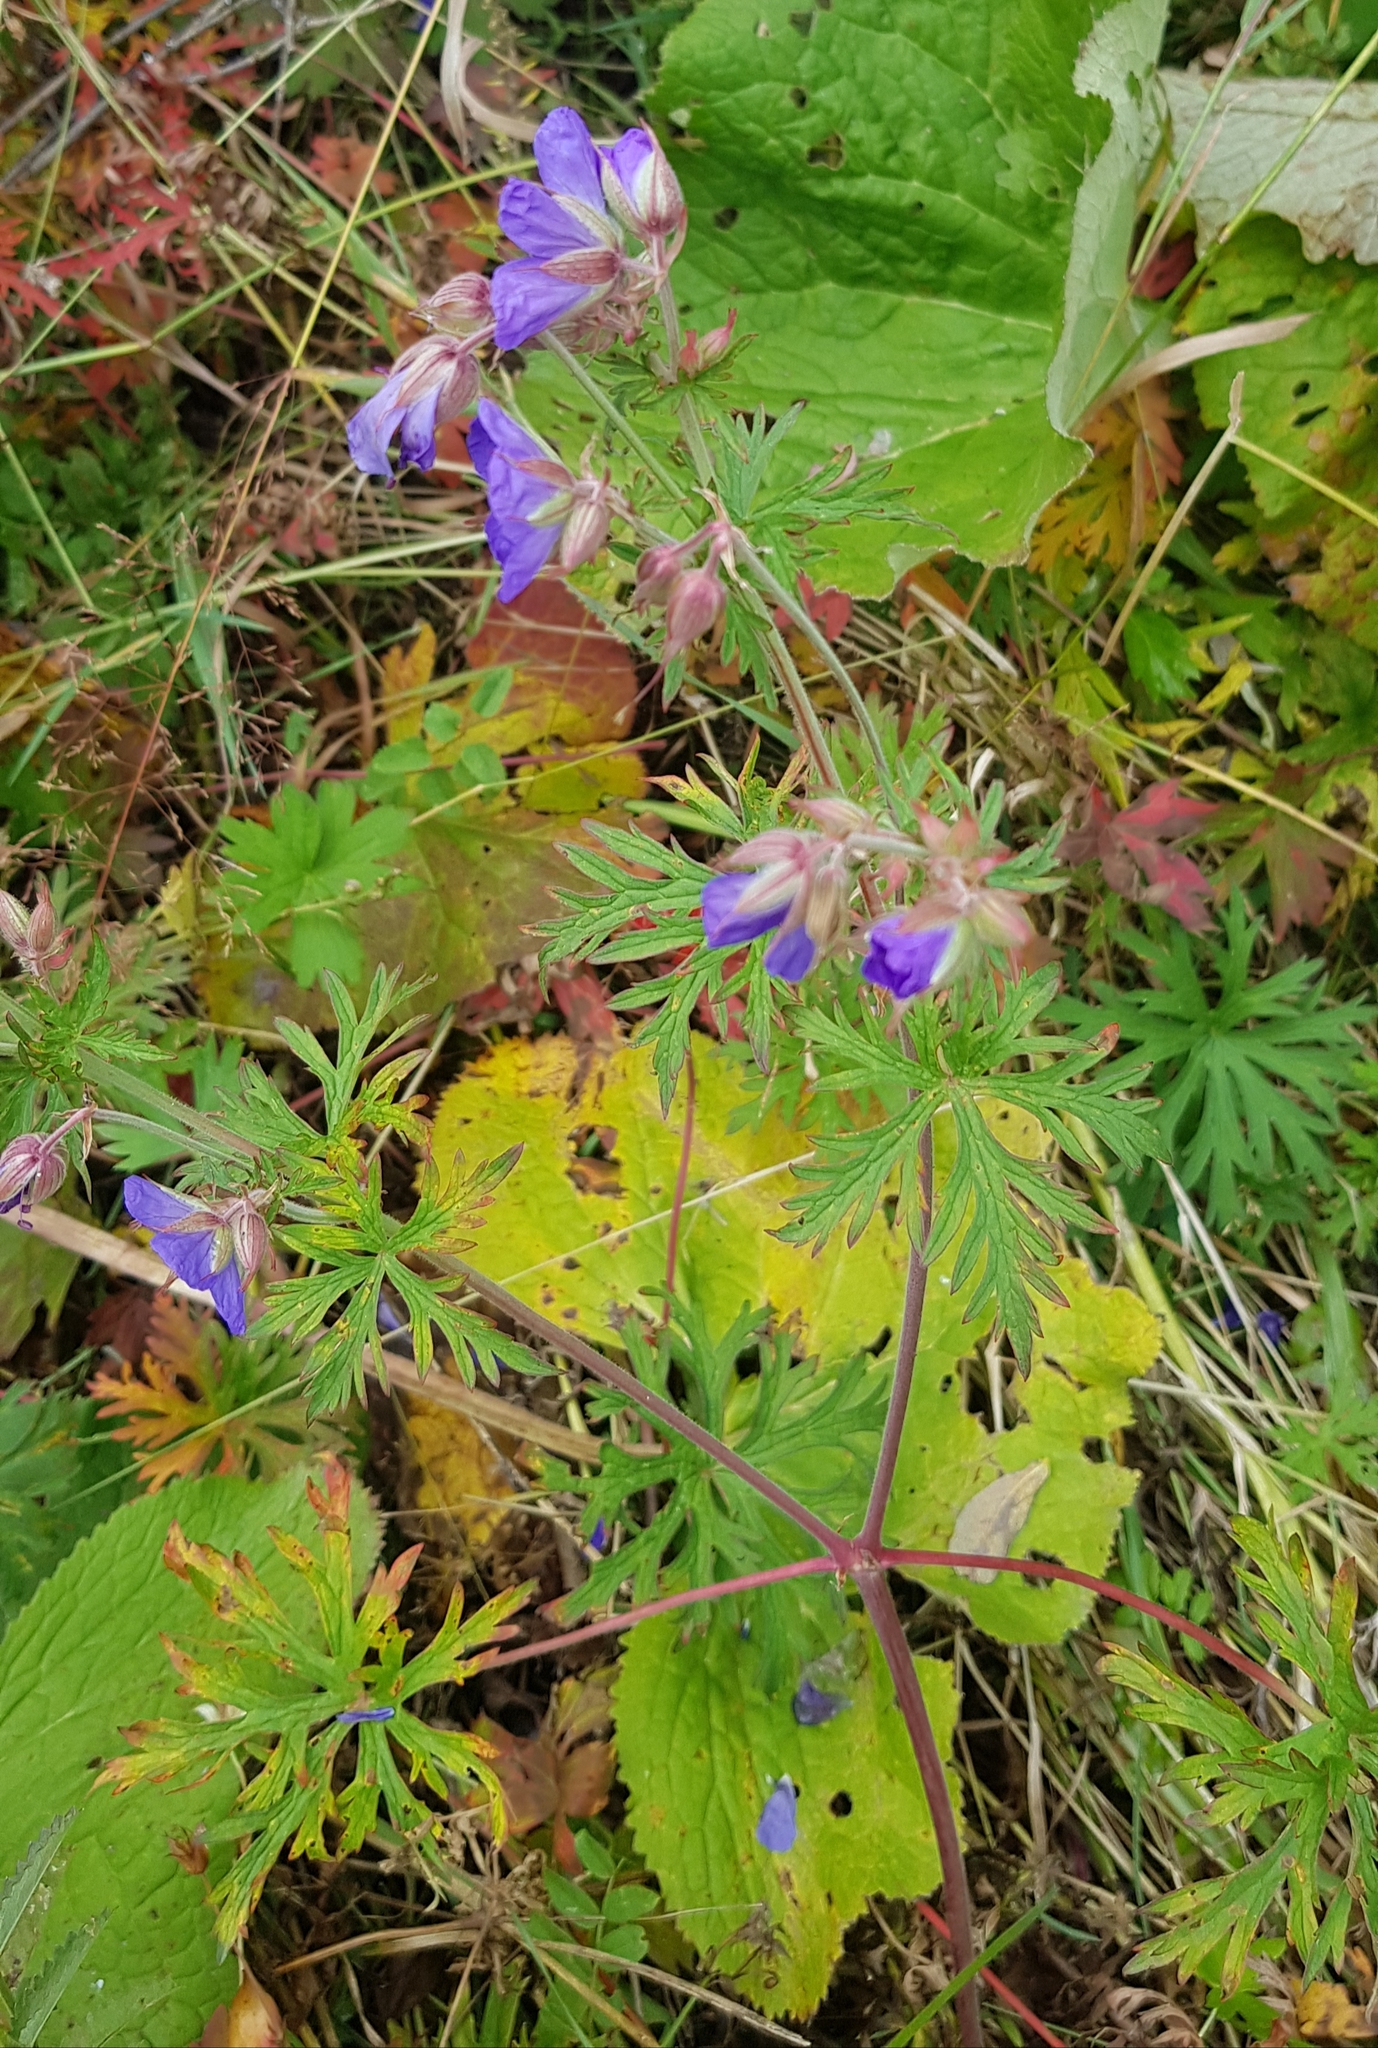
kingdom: Plantae
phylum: Tracheophyta
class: Magnoliopsida
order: Geraniales
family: Geraniaceae
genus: Geranium
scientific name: Geranium pratense
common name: Meadow crane's-bill
